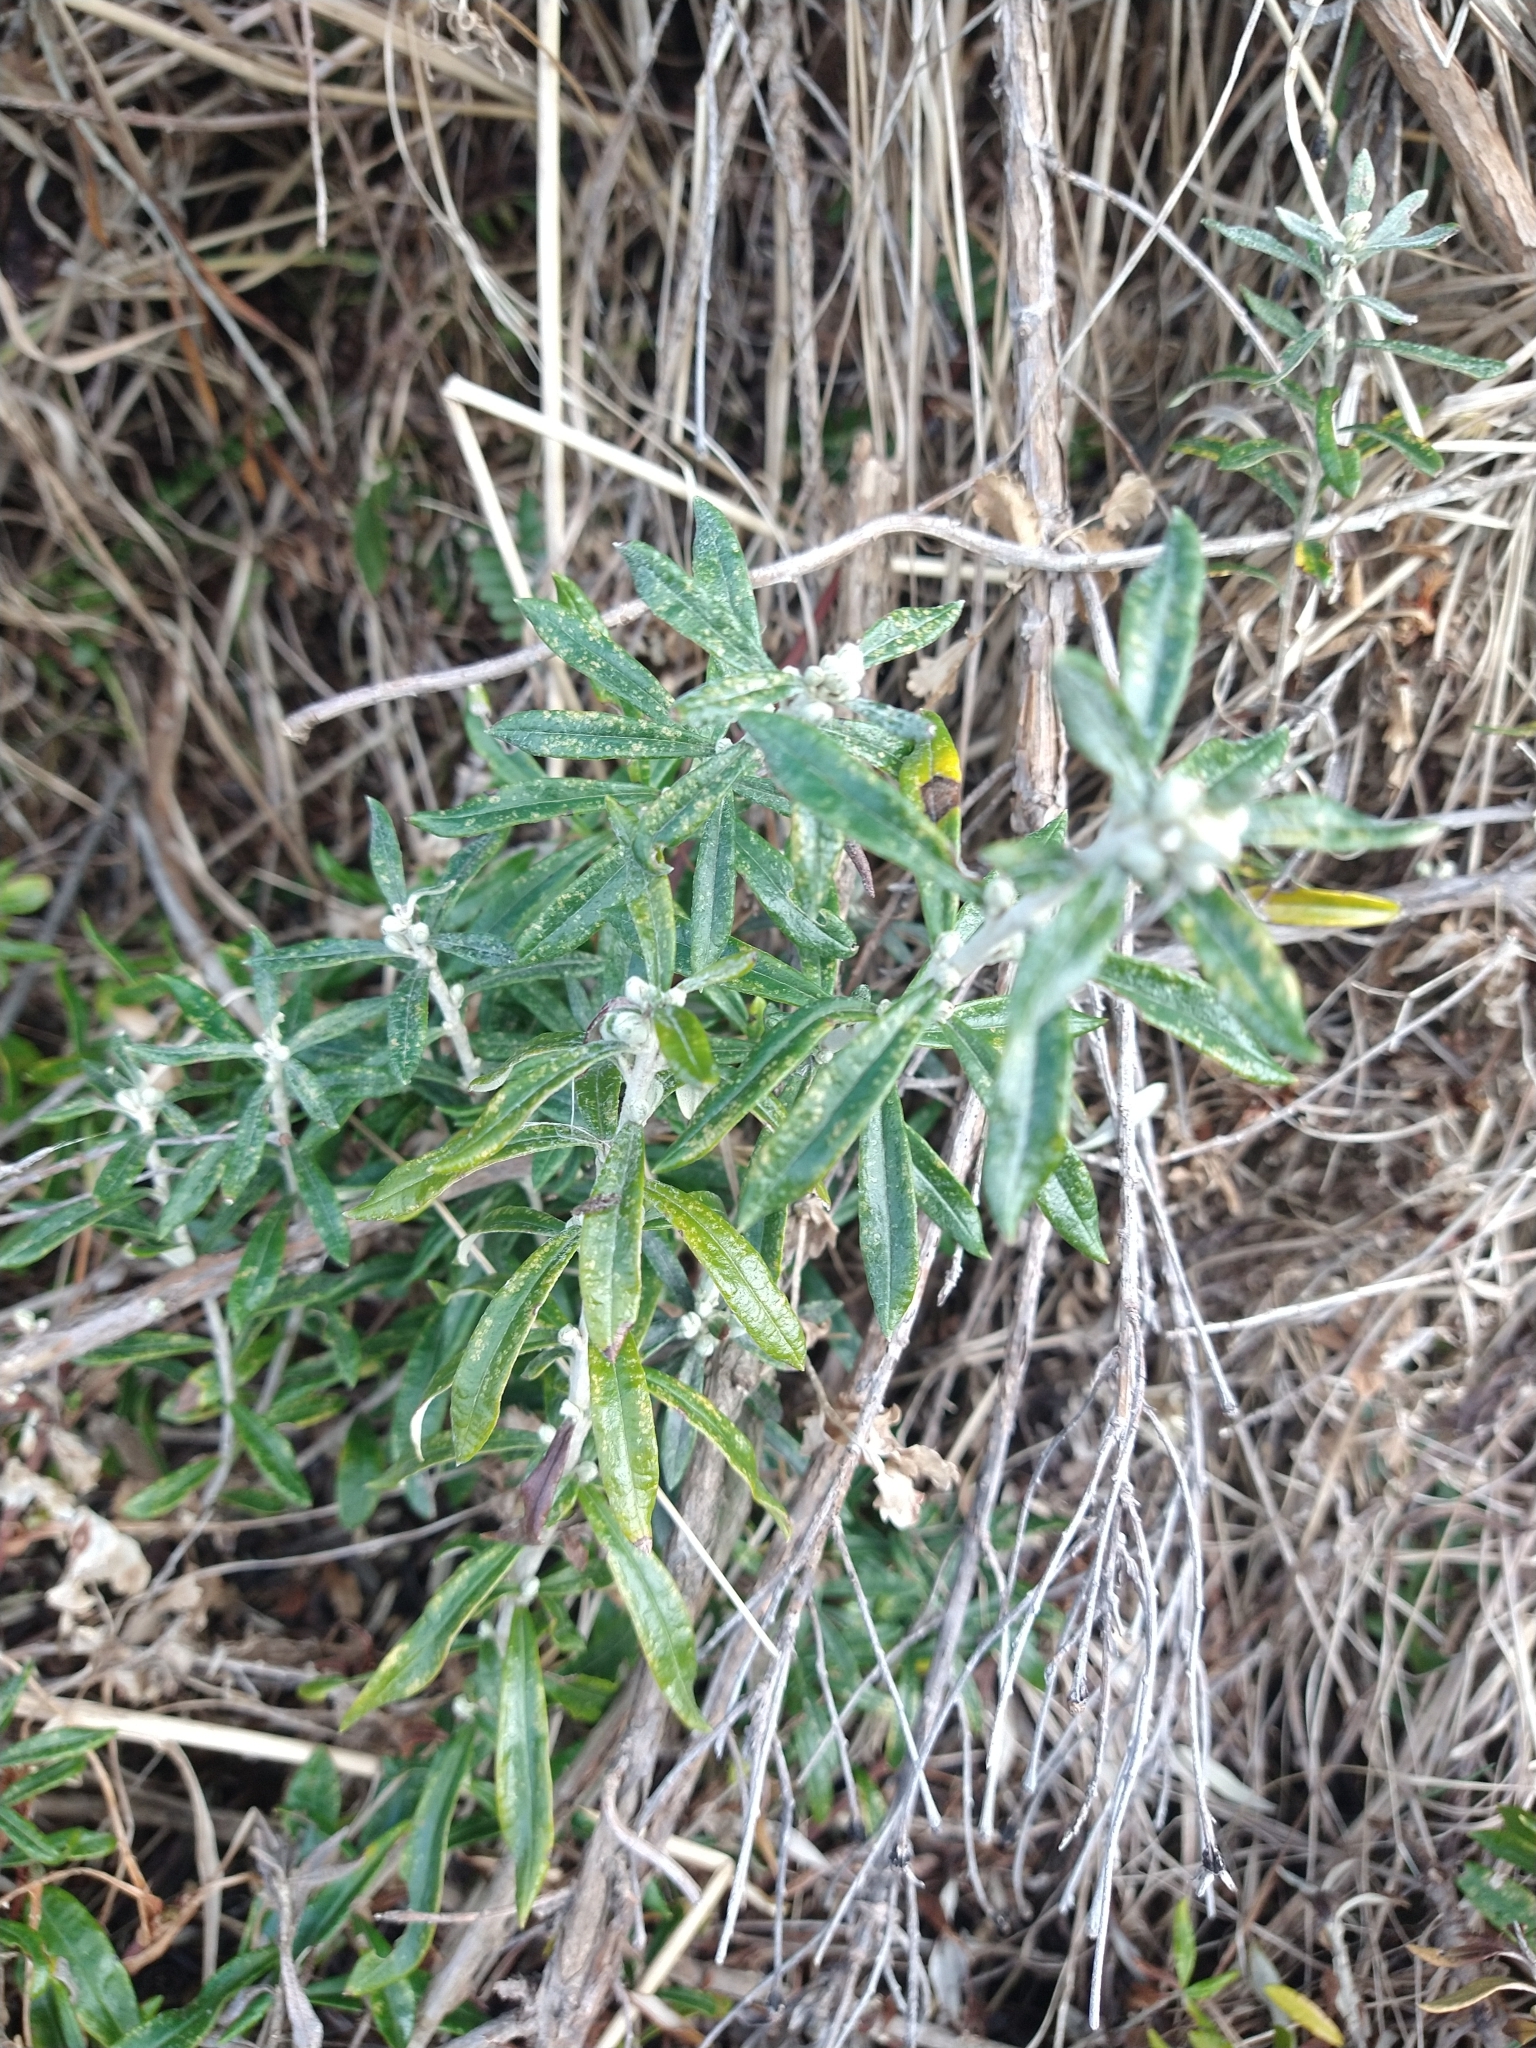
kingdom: Plantae
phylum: Tracheophyta
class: Magnoliopsida
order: Asterales
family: Asteraceae
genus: Chiliotrichum
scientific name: Chiliotrichum diffusum
